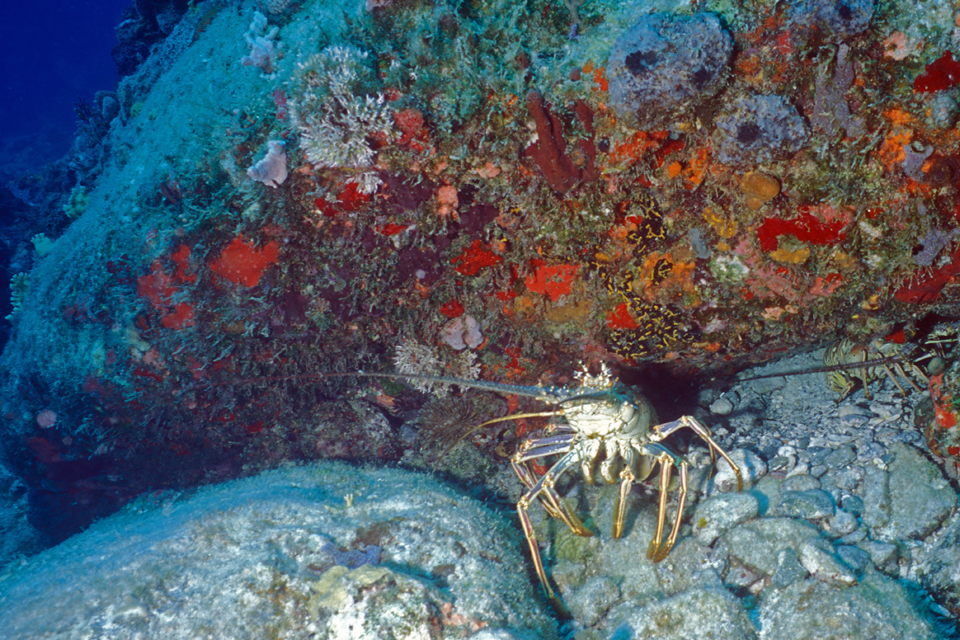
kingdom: Animalia
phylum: Arthropoda
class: Malacostraca
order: Decapoda
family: Palinuridae
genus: Panulirus
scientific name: Panulirus argus
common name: Caribbean spiny lobster
